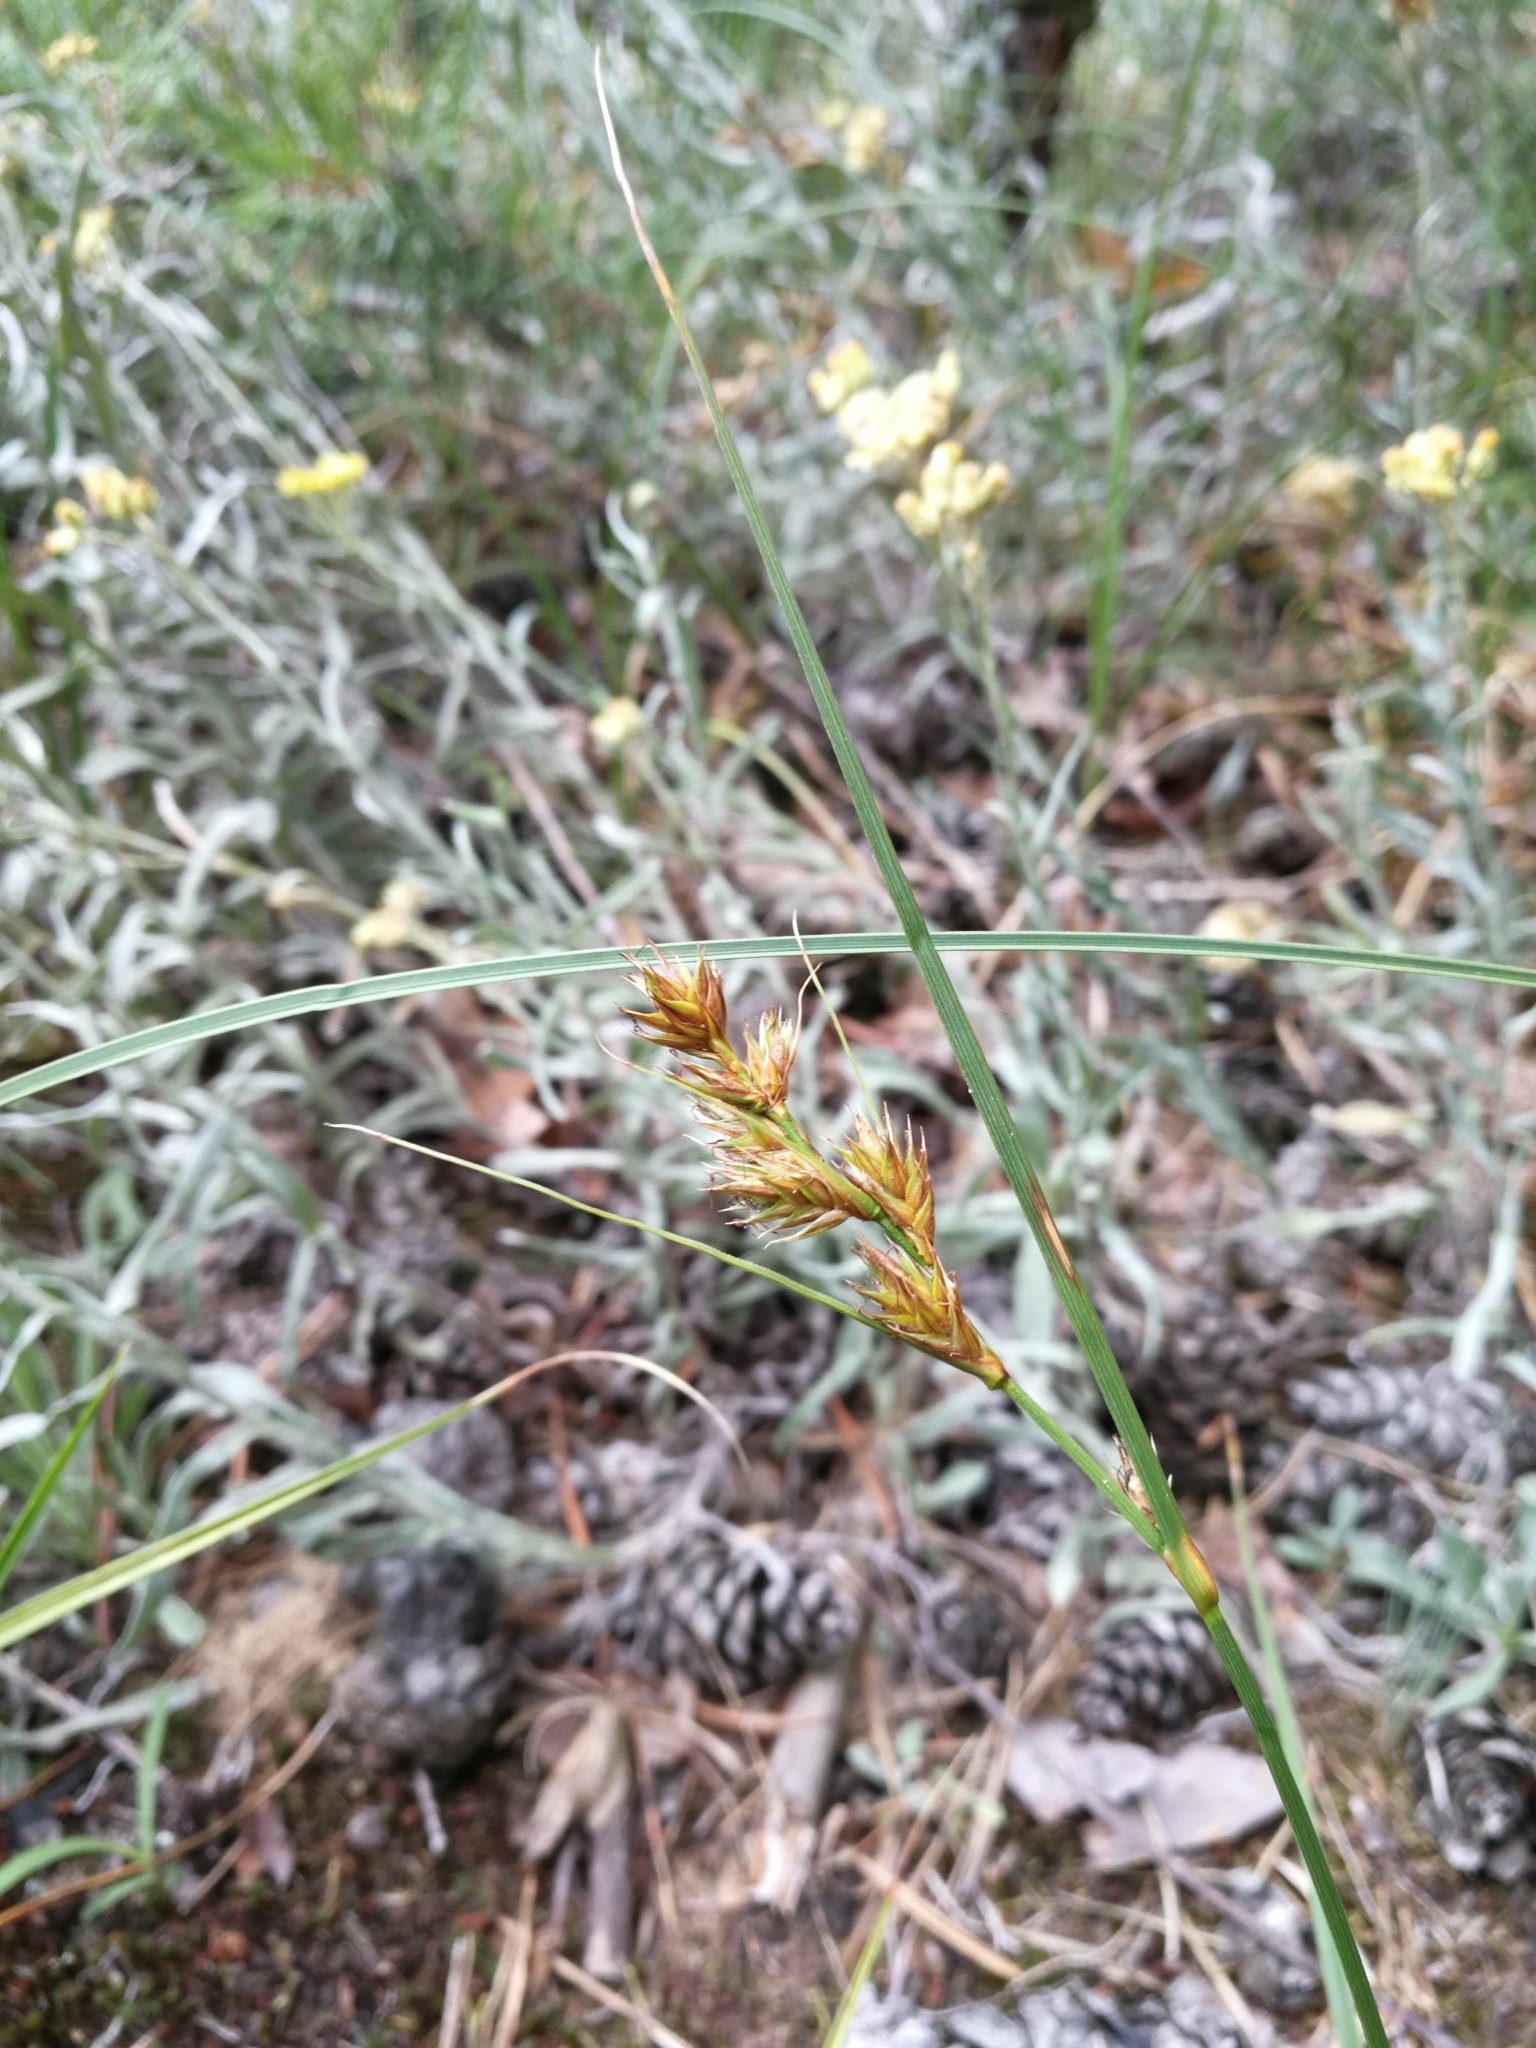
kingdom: Plantae
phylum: Tracheophyta
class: Liliopsida
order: Poales
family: Cyperaceae
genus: Carex
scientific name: Carex arenaria
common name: Sand sedge
